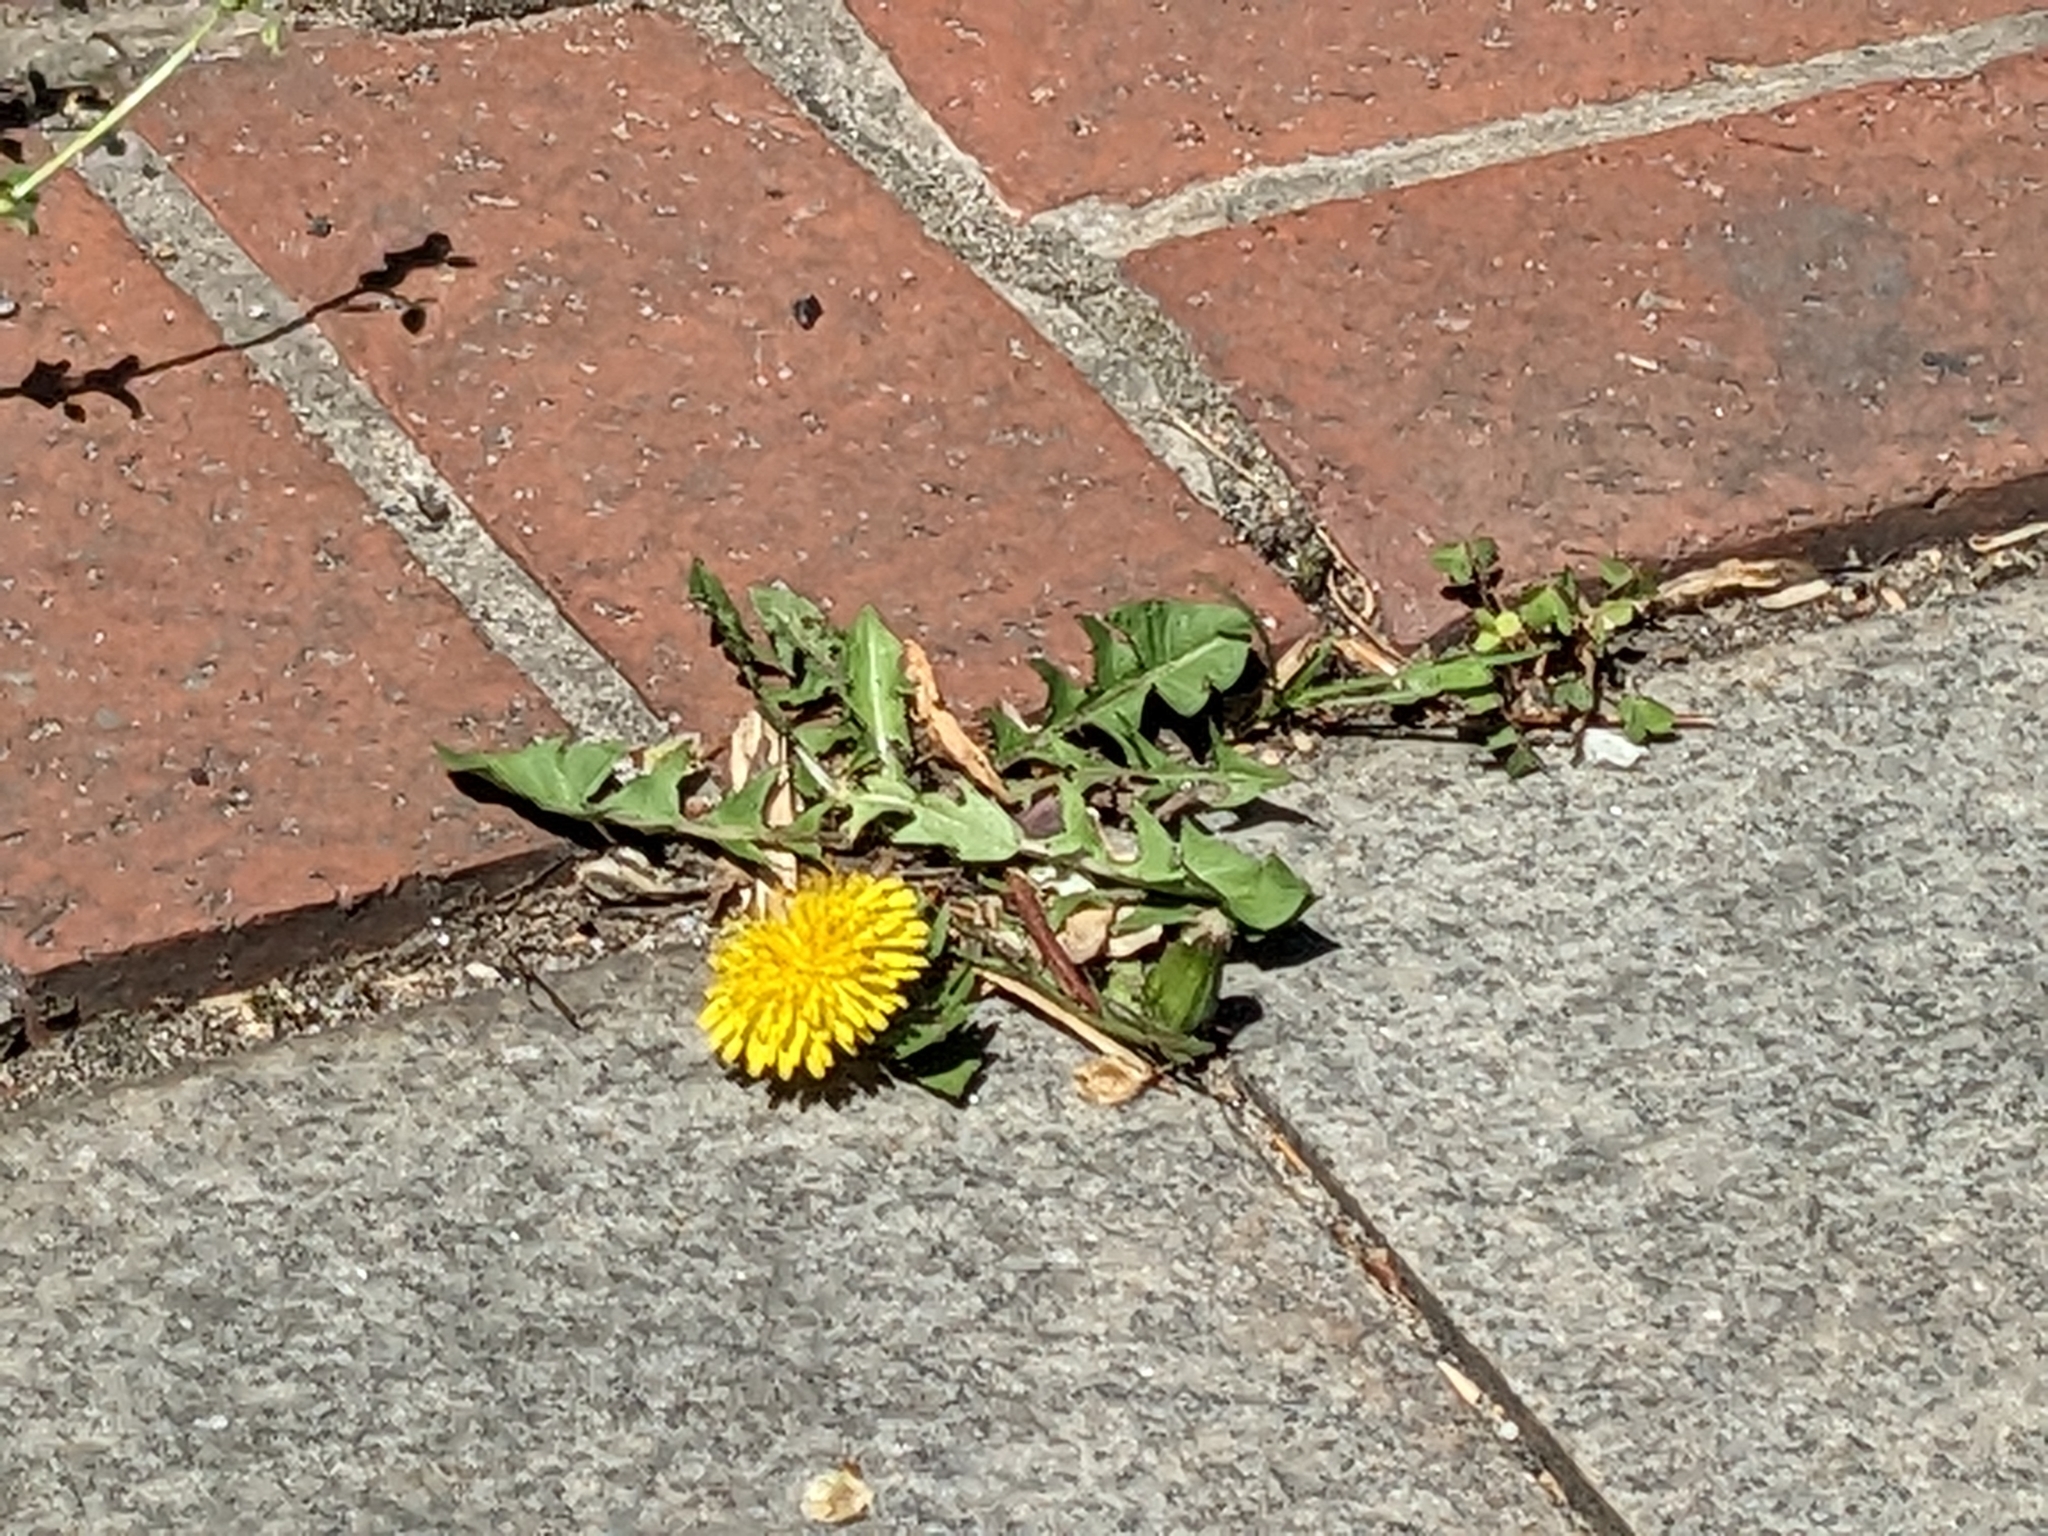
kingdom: Plantae
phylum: Tracheophyta
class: Magnoliopsida
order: Asterales
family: Asteraceae
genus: Taraxacum
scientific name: Taraxacum officinale
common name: Common dandelion
